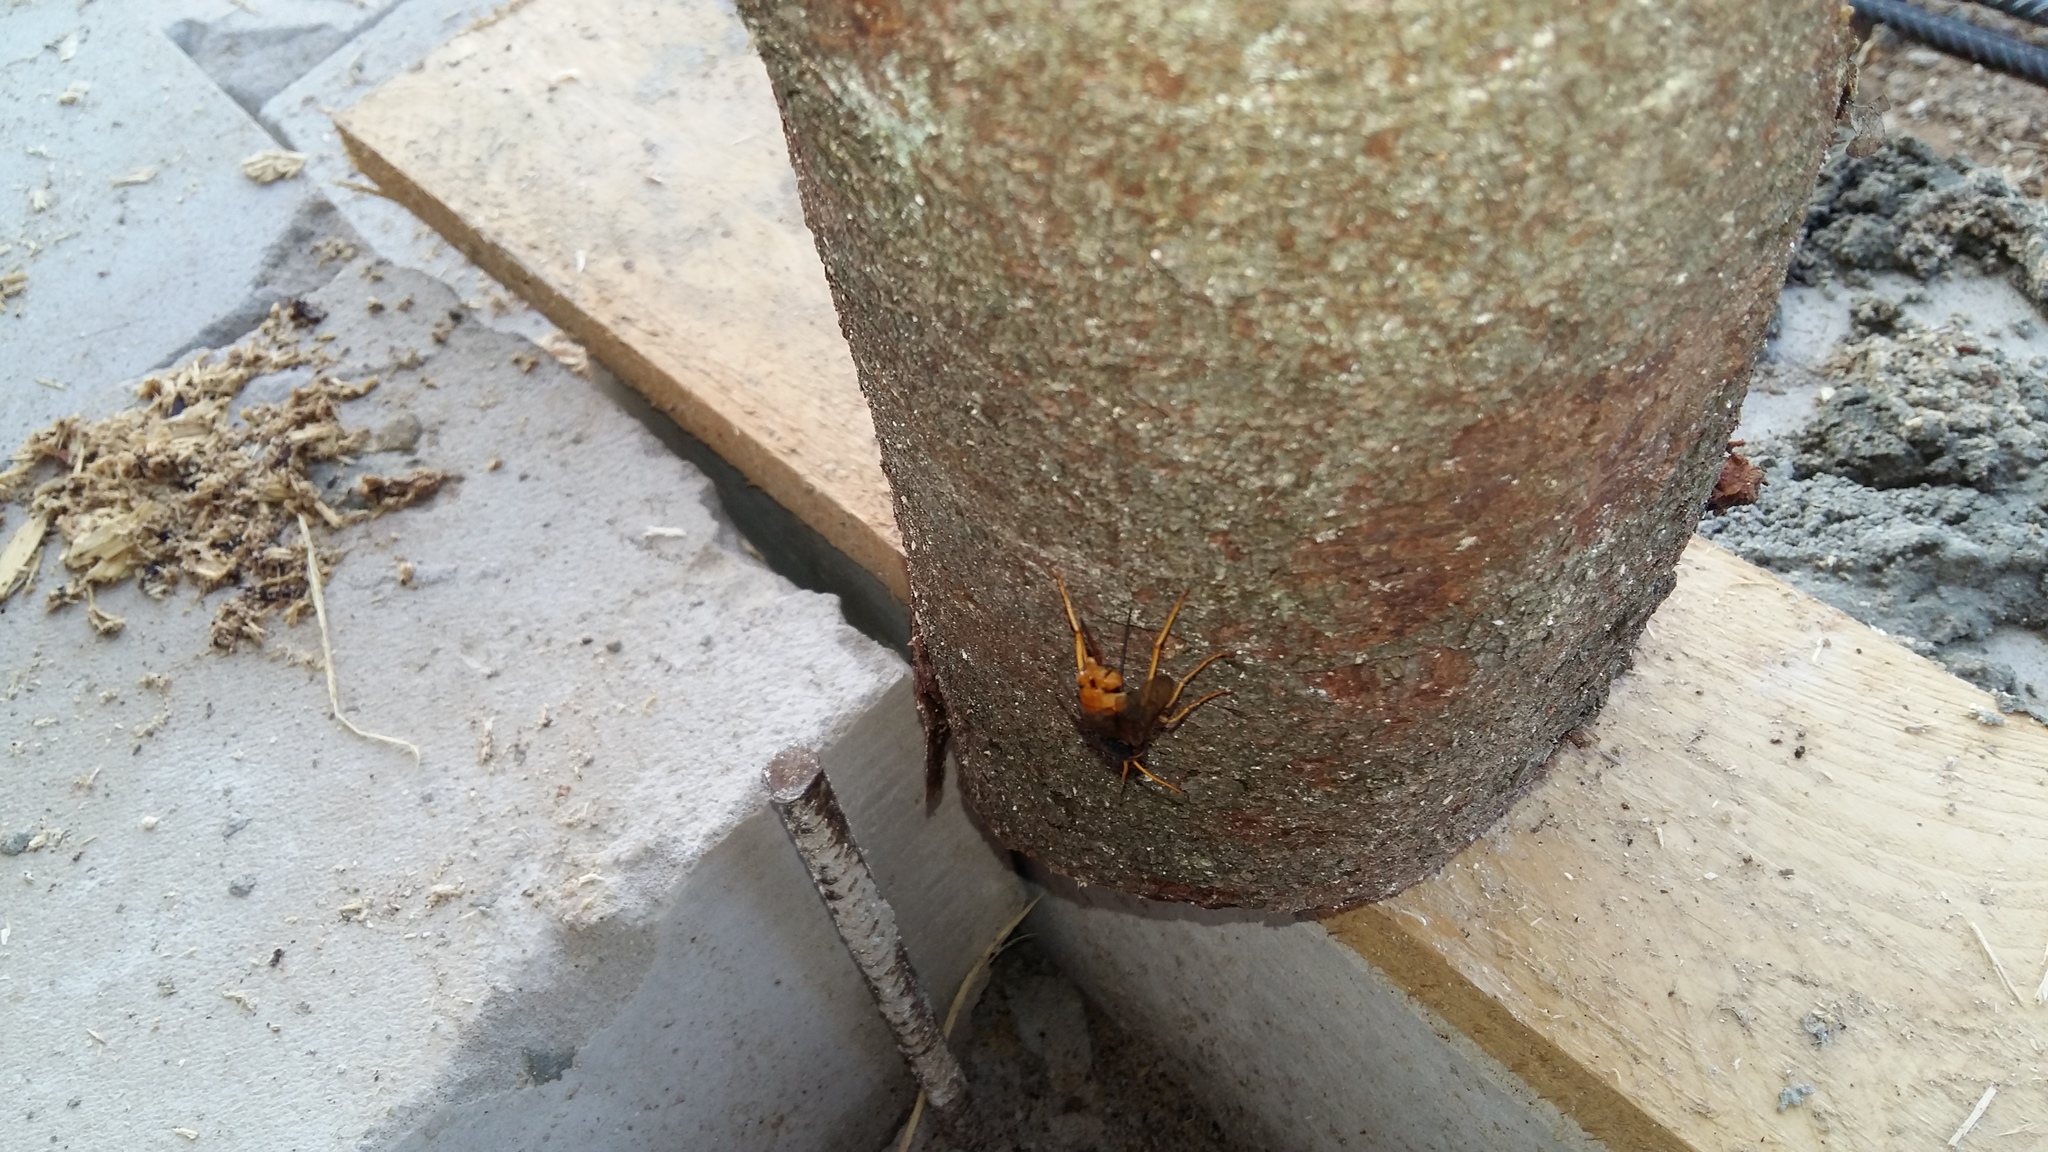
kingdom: Animalia
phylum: Arthropoda
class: Insecta
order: Hymenoptera
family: Siricidae
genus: Urocerus
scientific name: Urocerus gigas
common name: Giant woodwasp
